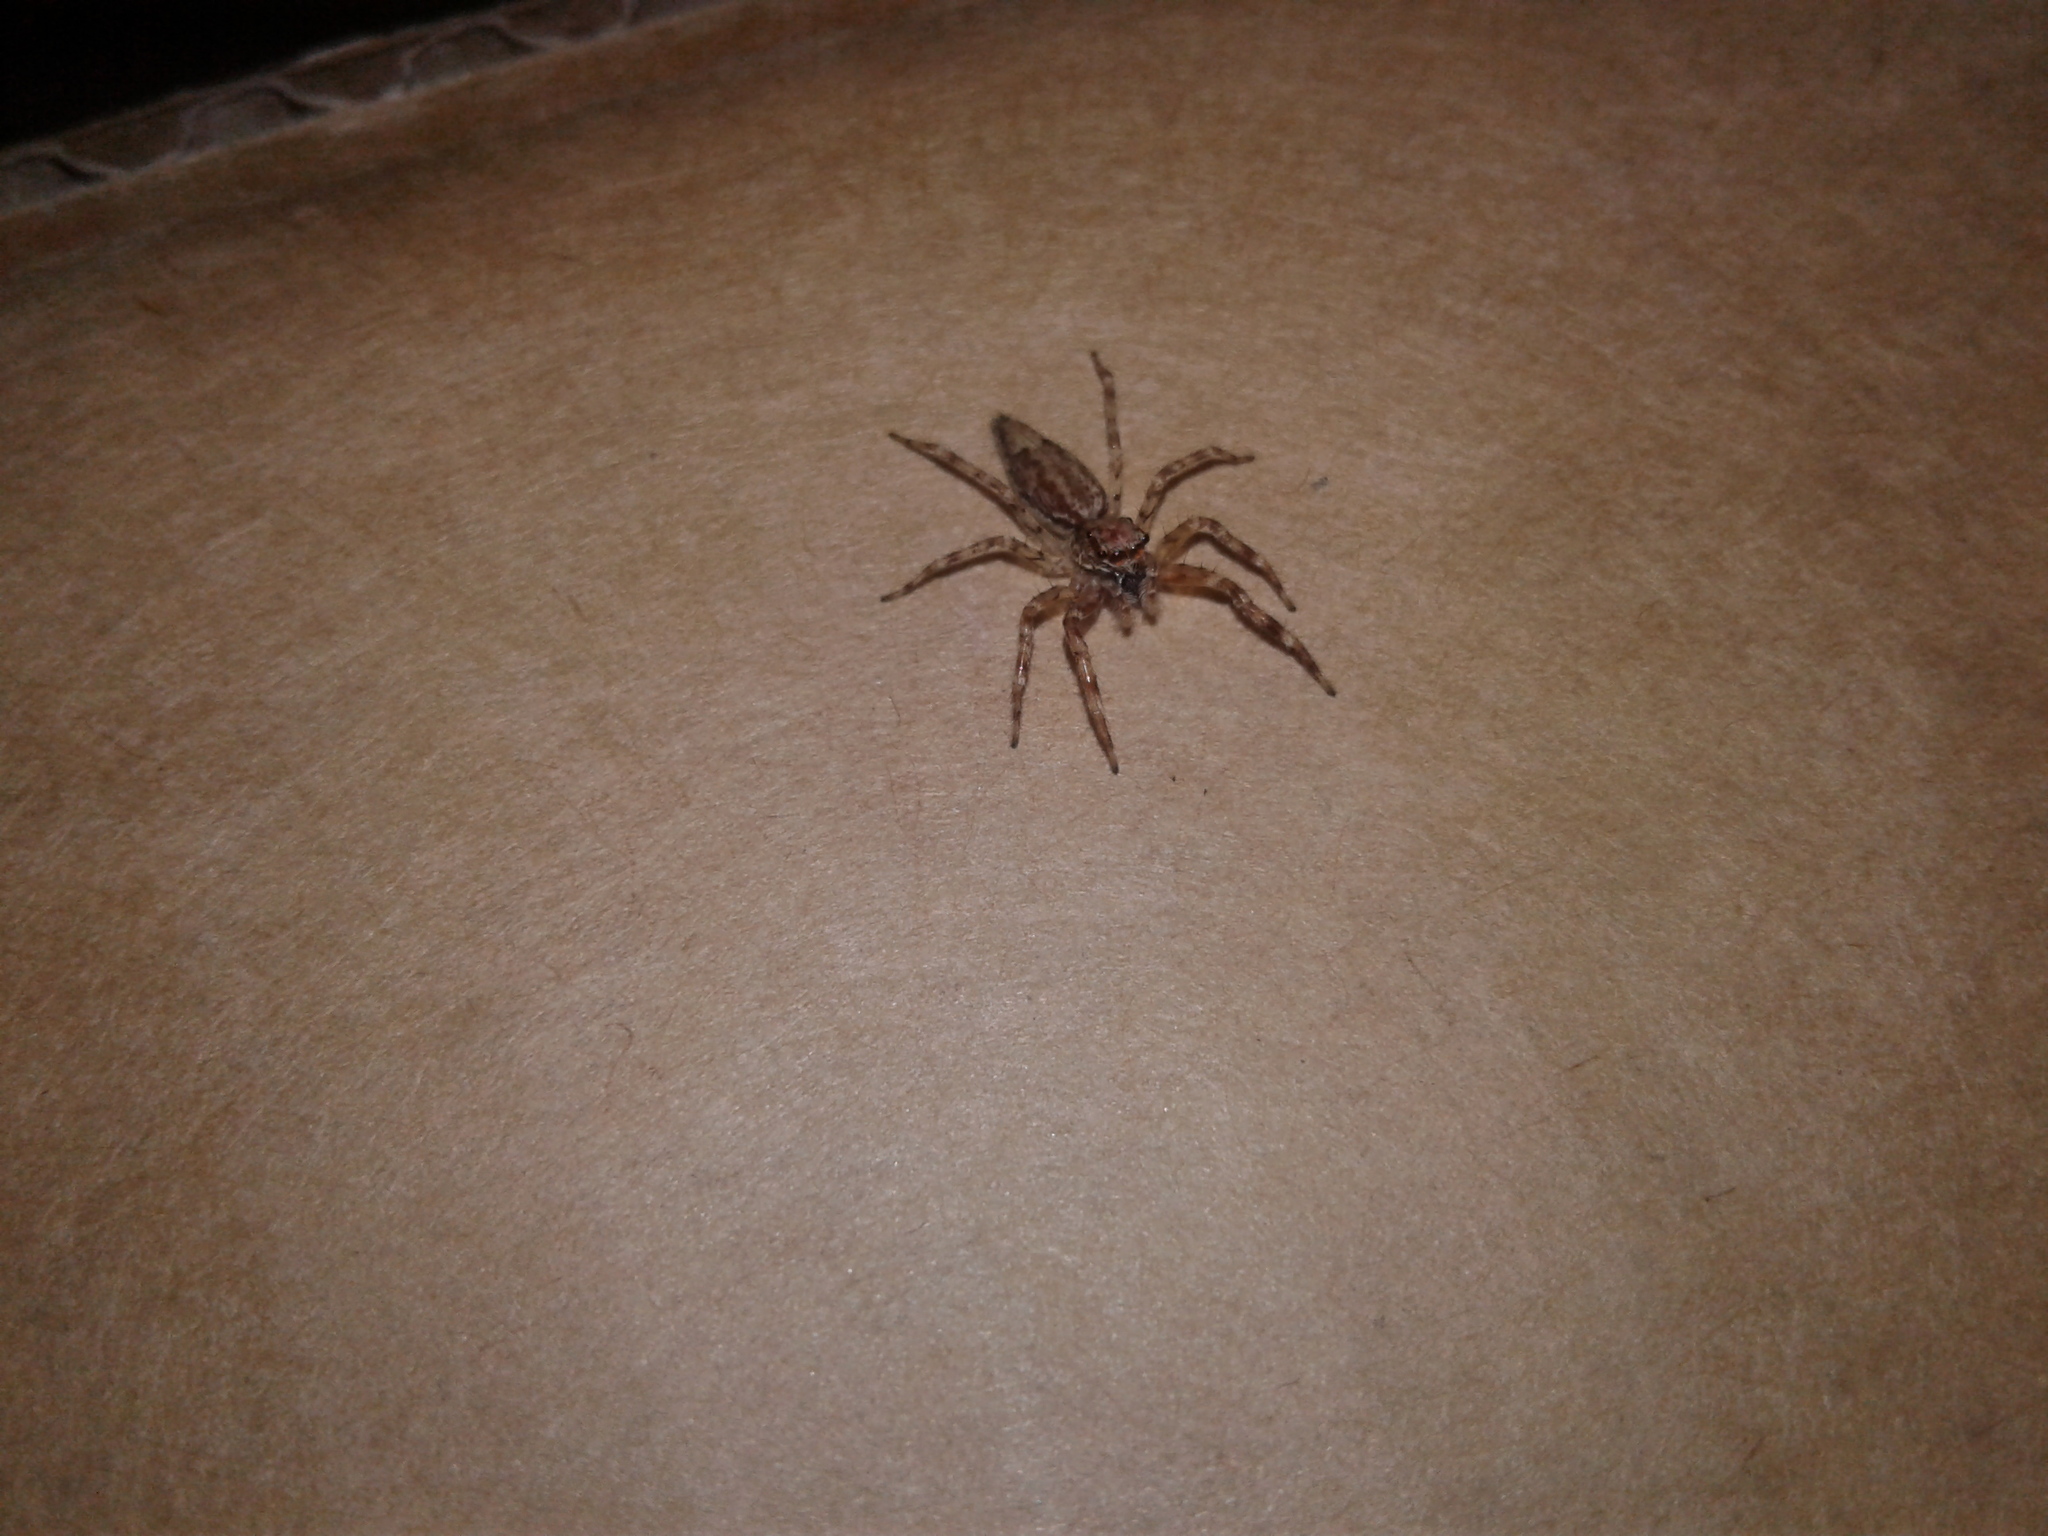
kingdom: Animalia
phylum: Arthropoda
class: Arachnida
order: Araneae
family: Salticidae
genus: Helpis
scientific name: Helpis minitabunda
